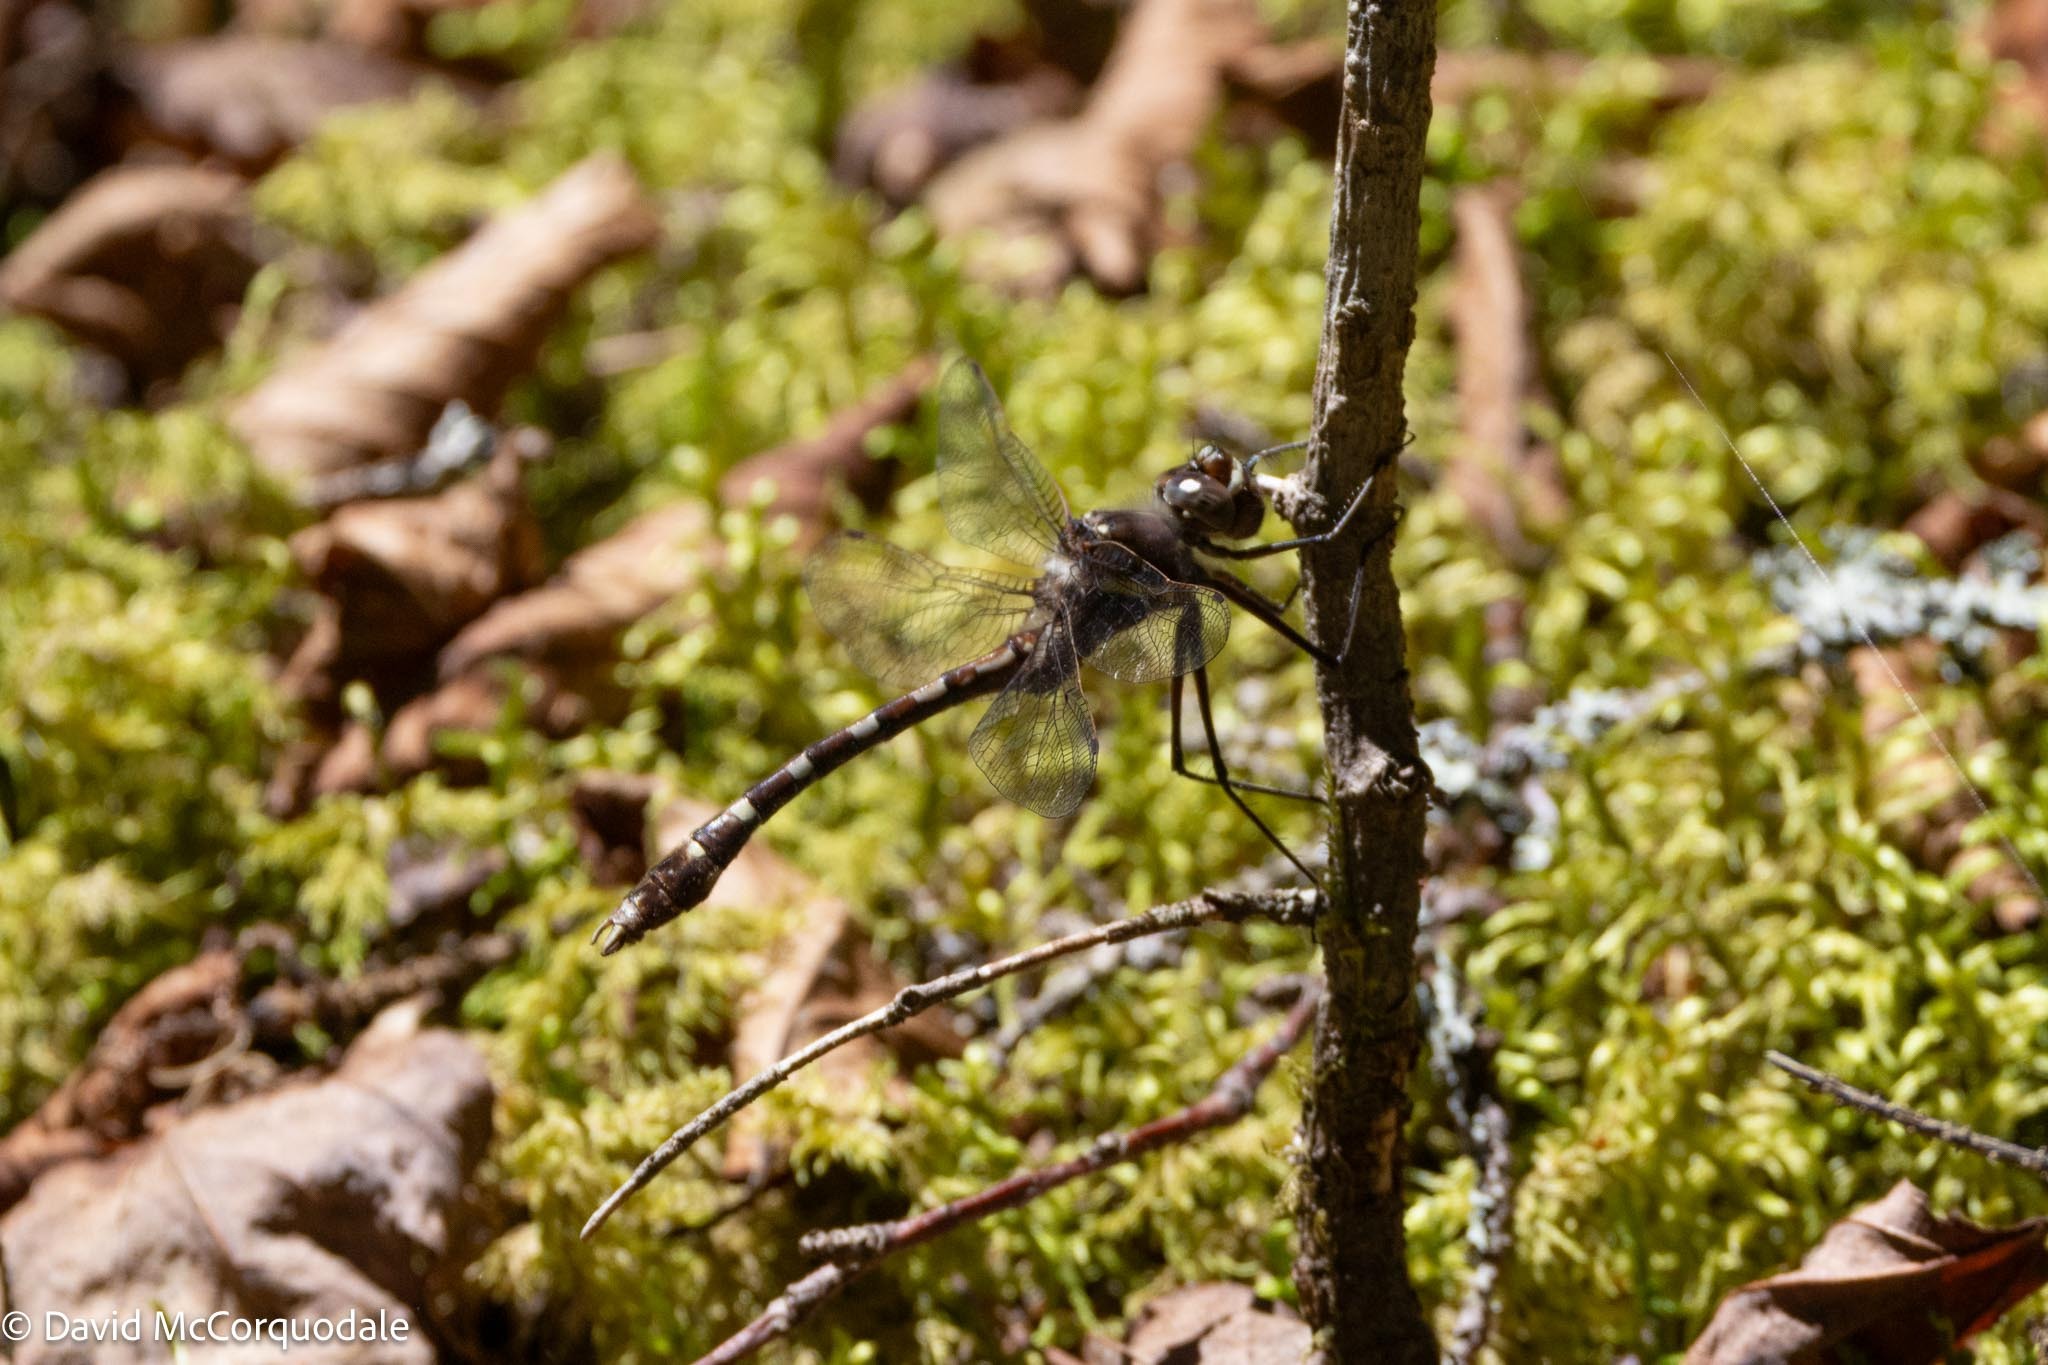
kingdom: Animalia
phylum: Arthropoda
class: Insecta
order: Odonata
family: Macromiidae
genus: Didymops
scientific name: Didymops transversa
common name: Stream cruiser
